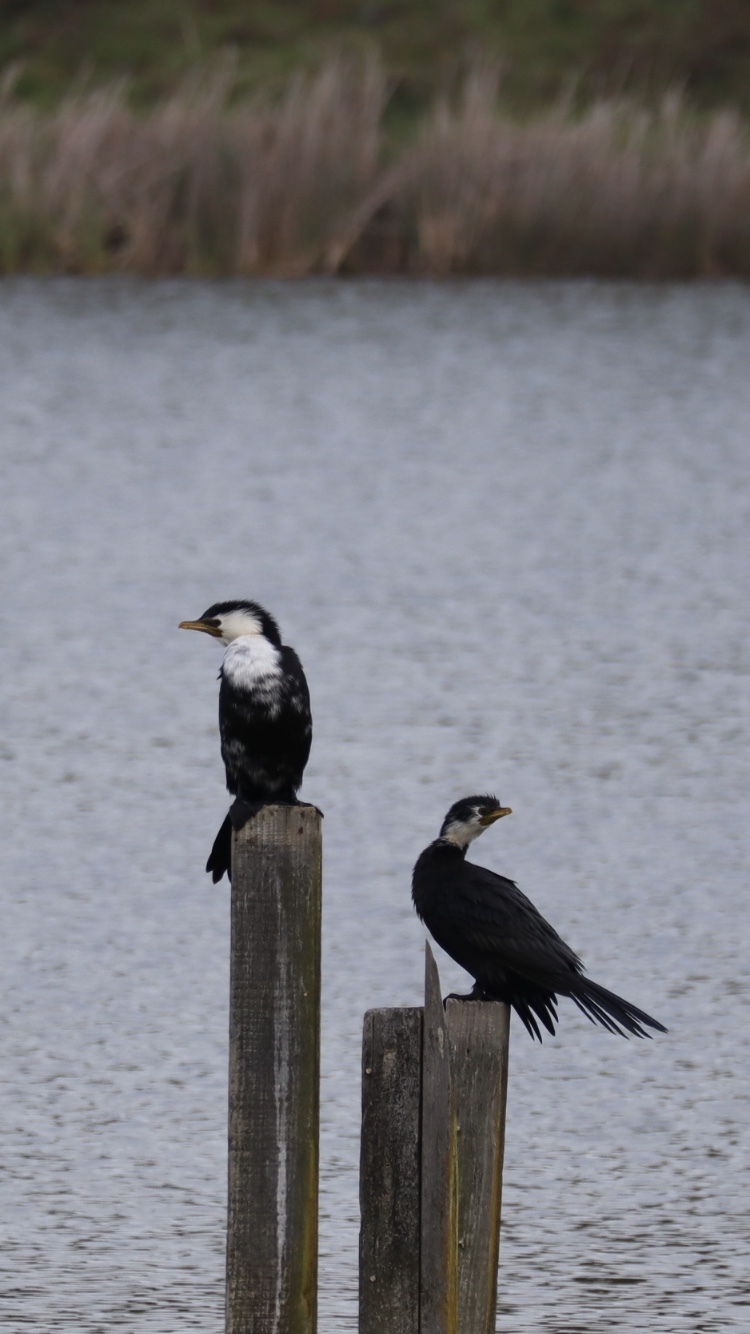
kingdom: Animalia
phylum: Chordata
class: Aves
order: Suliformes
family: Phalacrocoracidae
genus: Microcarbo
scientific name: Microcarbo melanoleucos
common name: Little pied cormorant
